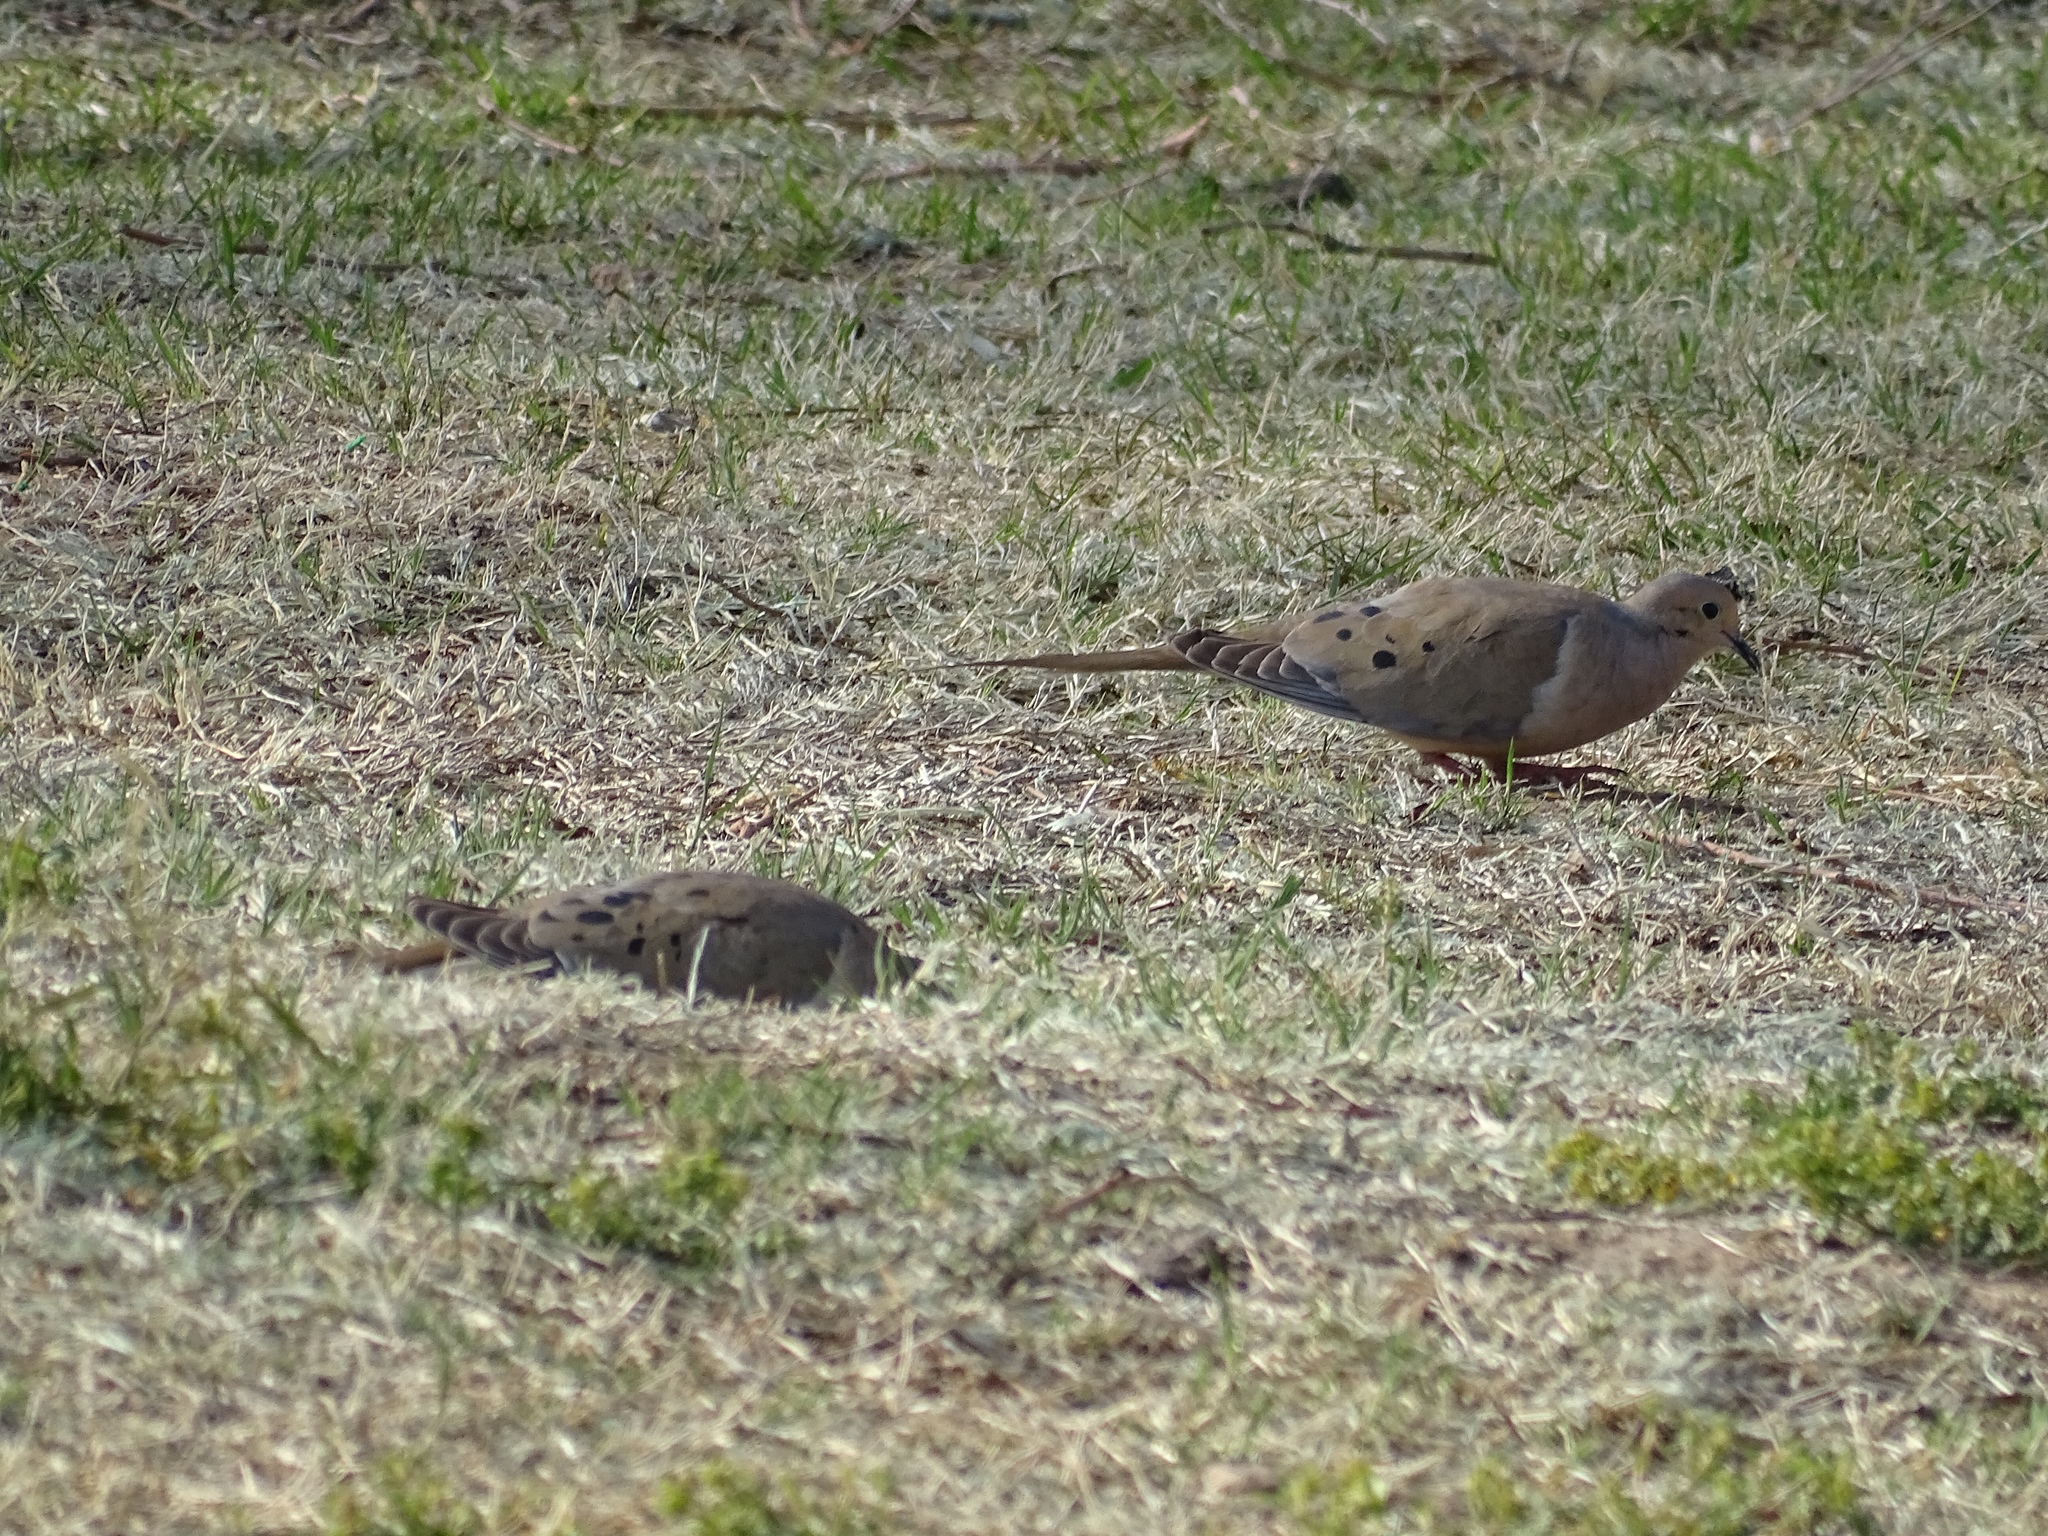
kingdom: Animalia
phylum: Chordata
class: Aves
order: Columbiformes
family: Columbidae
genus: Zenaida
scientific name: Zenaida macroura
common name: Mourning dove
